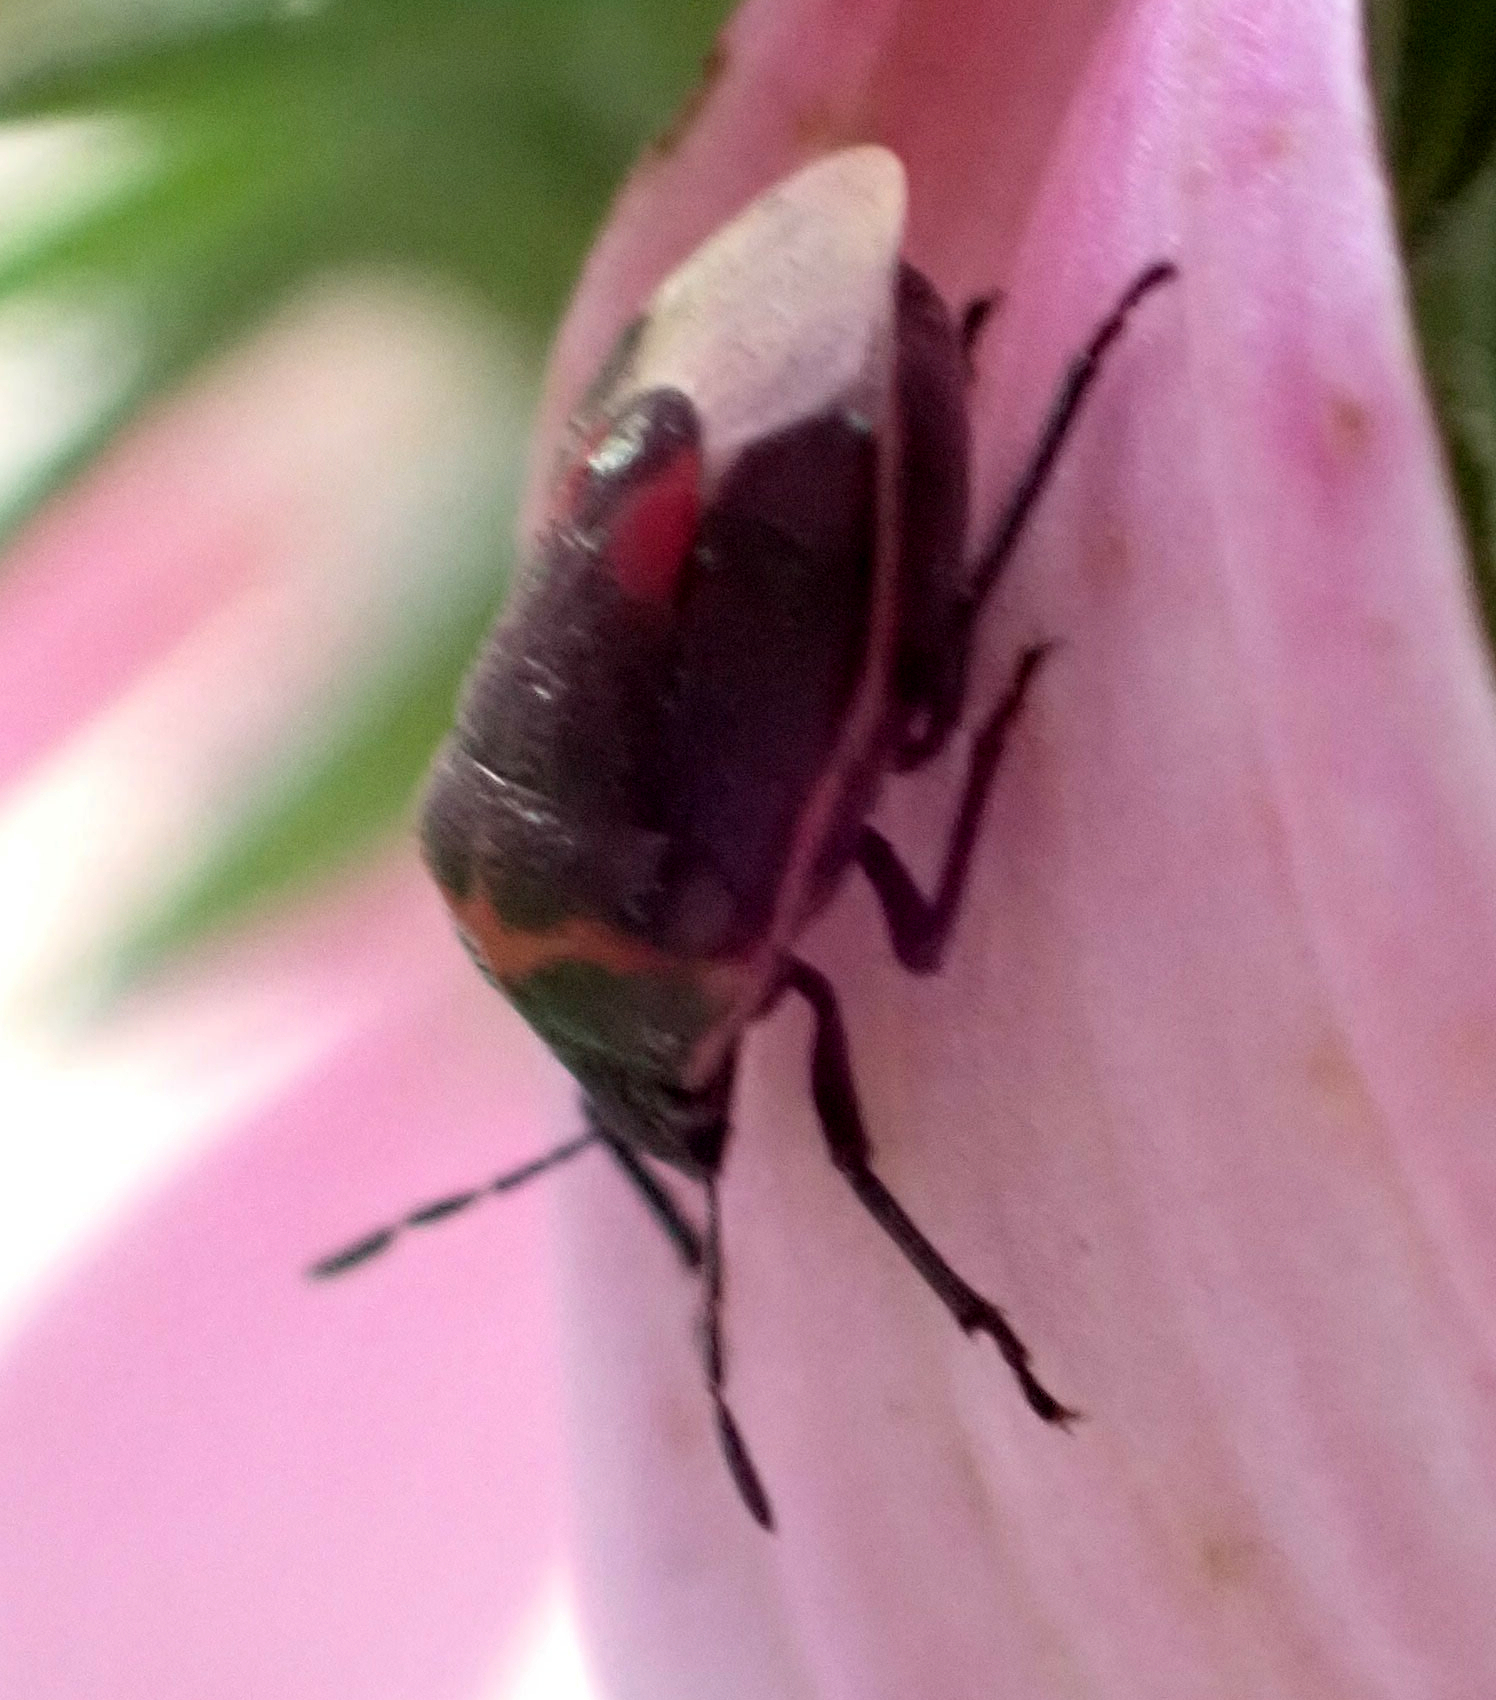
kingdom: Animalia
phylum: Arthropoda
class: Insecta
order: Hemiptera
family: Pentatomidae
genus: Cosmopepla
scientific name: Cosmopepla lintneriana
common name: Twice-stabbed stink bug
